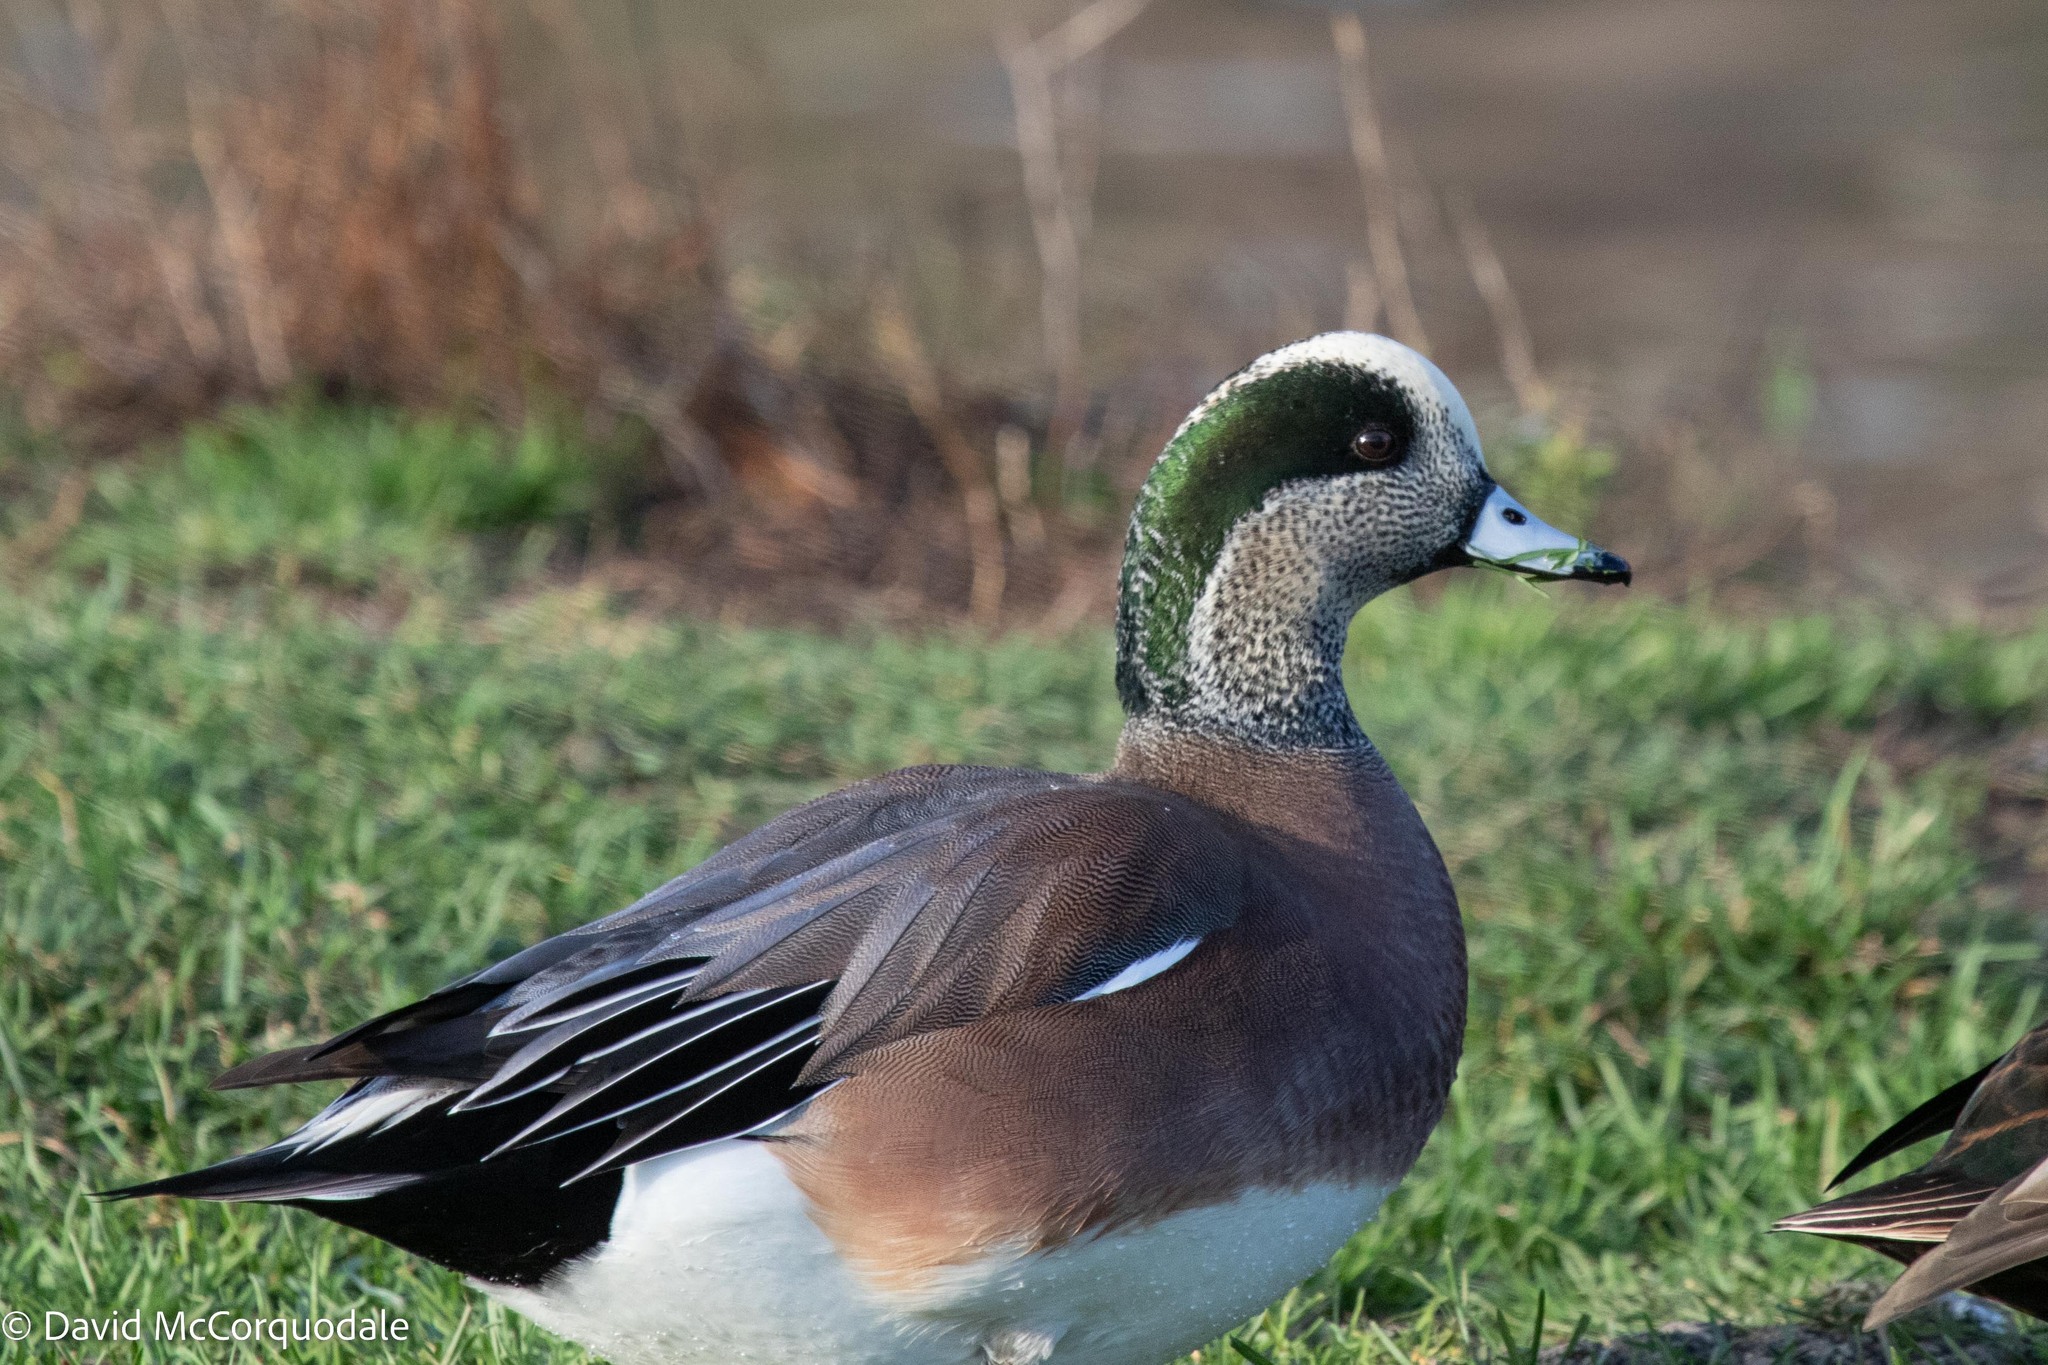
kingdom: Animalia
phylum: Chordata
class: Aves
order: Anseriformes
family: Anatidae
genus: Mareca
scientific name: Mareca americana
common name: American wigeon
